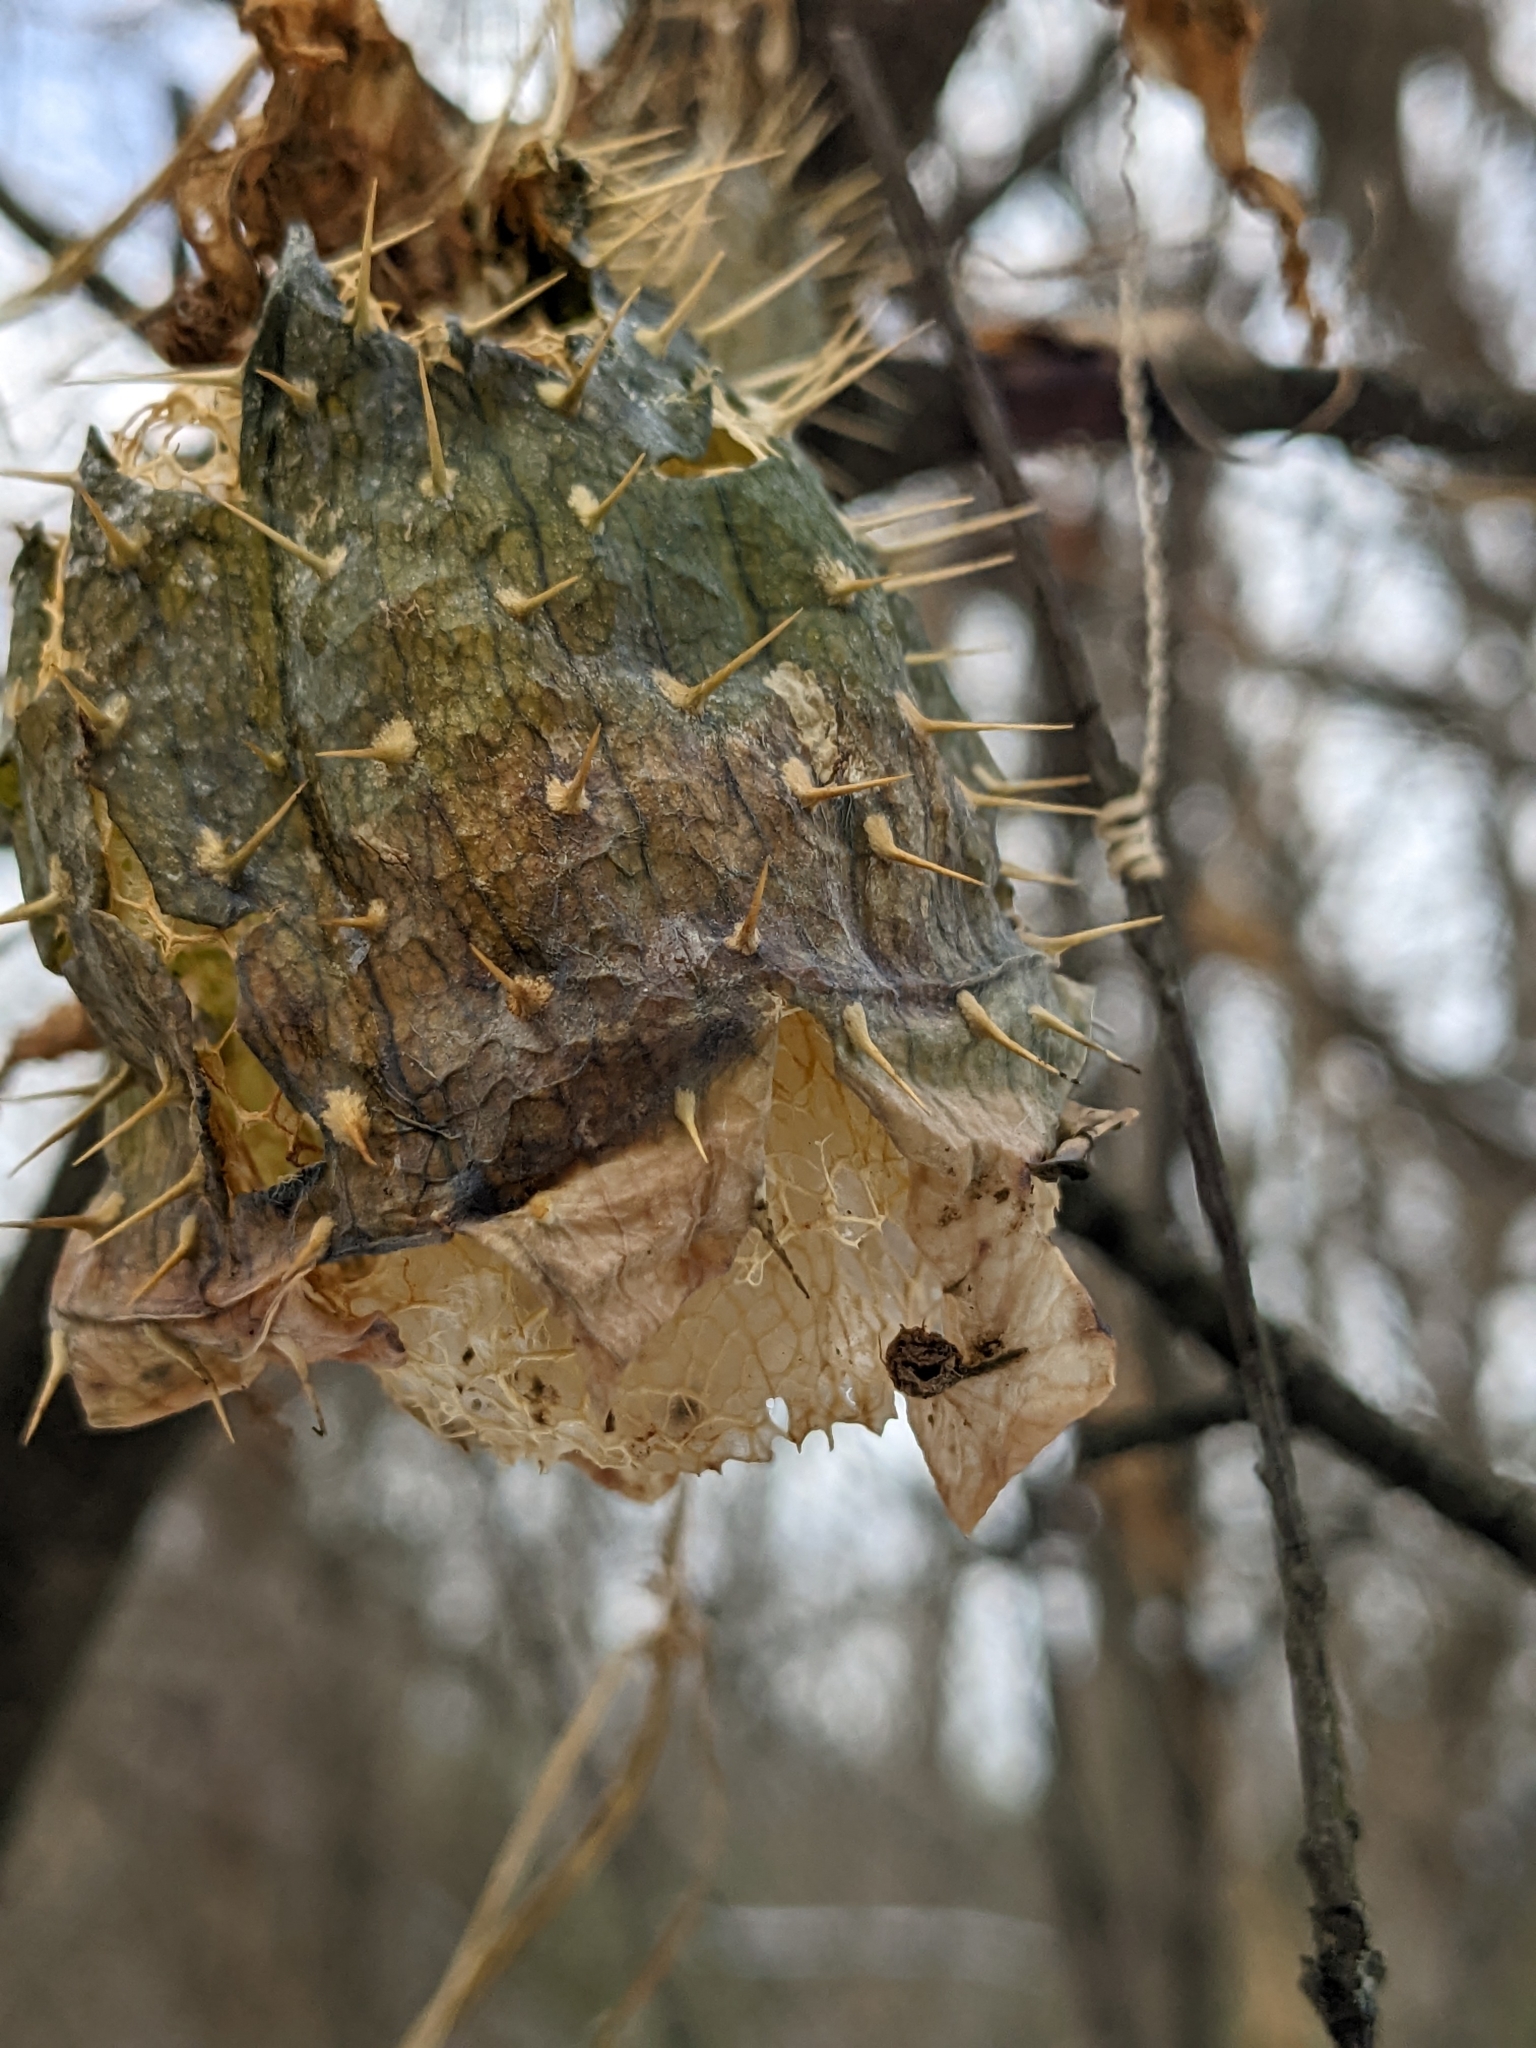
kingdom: Plantae
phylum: Tracheophyta
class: Magnoliopsida
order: Cucurbitales
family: Cucurbitaceae
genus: Echinocystis
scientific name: Echinocystis lobata
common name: Wild cucumber
